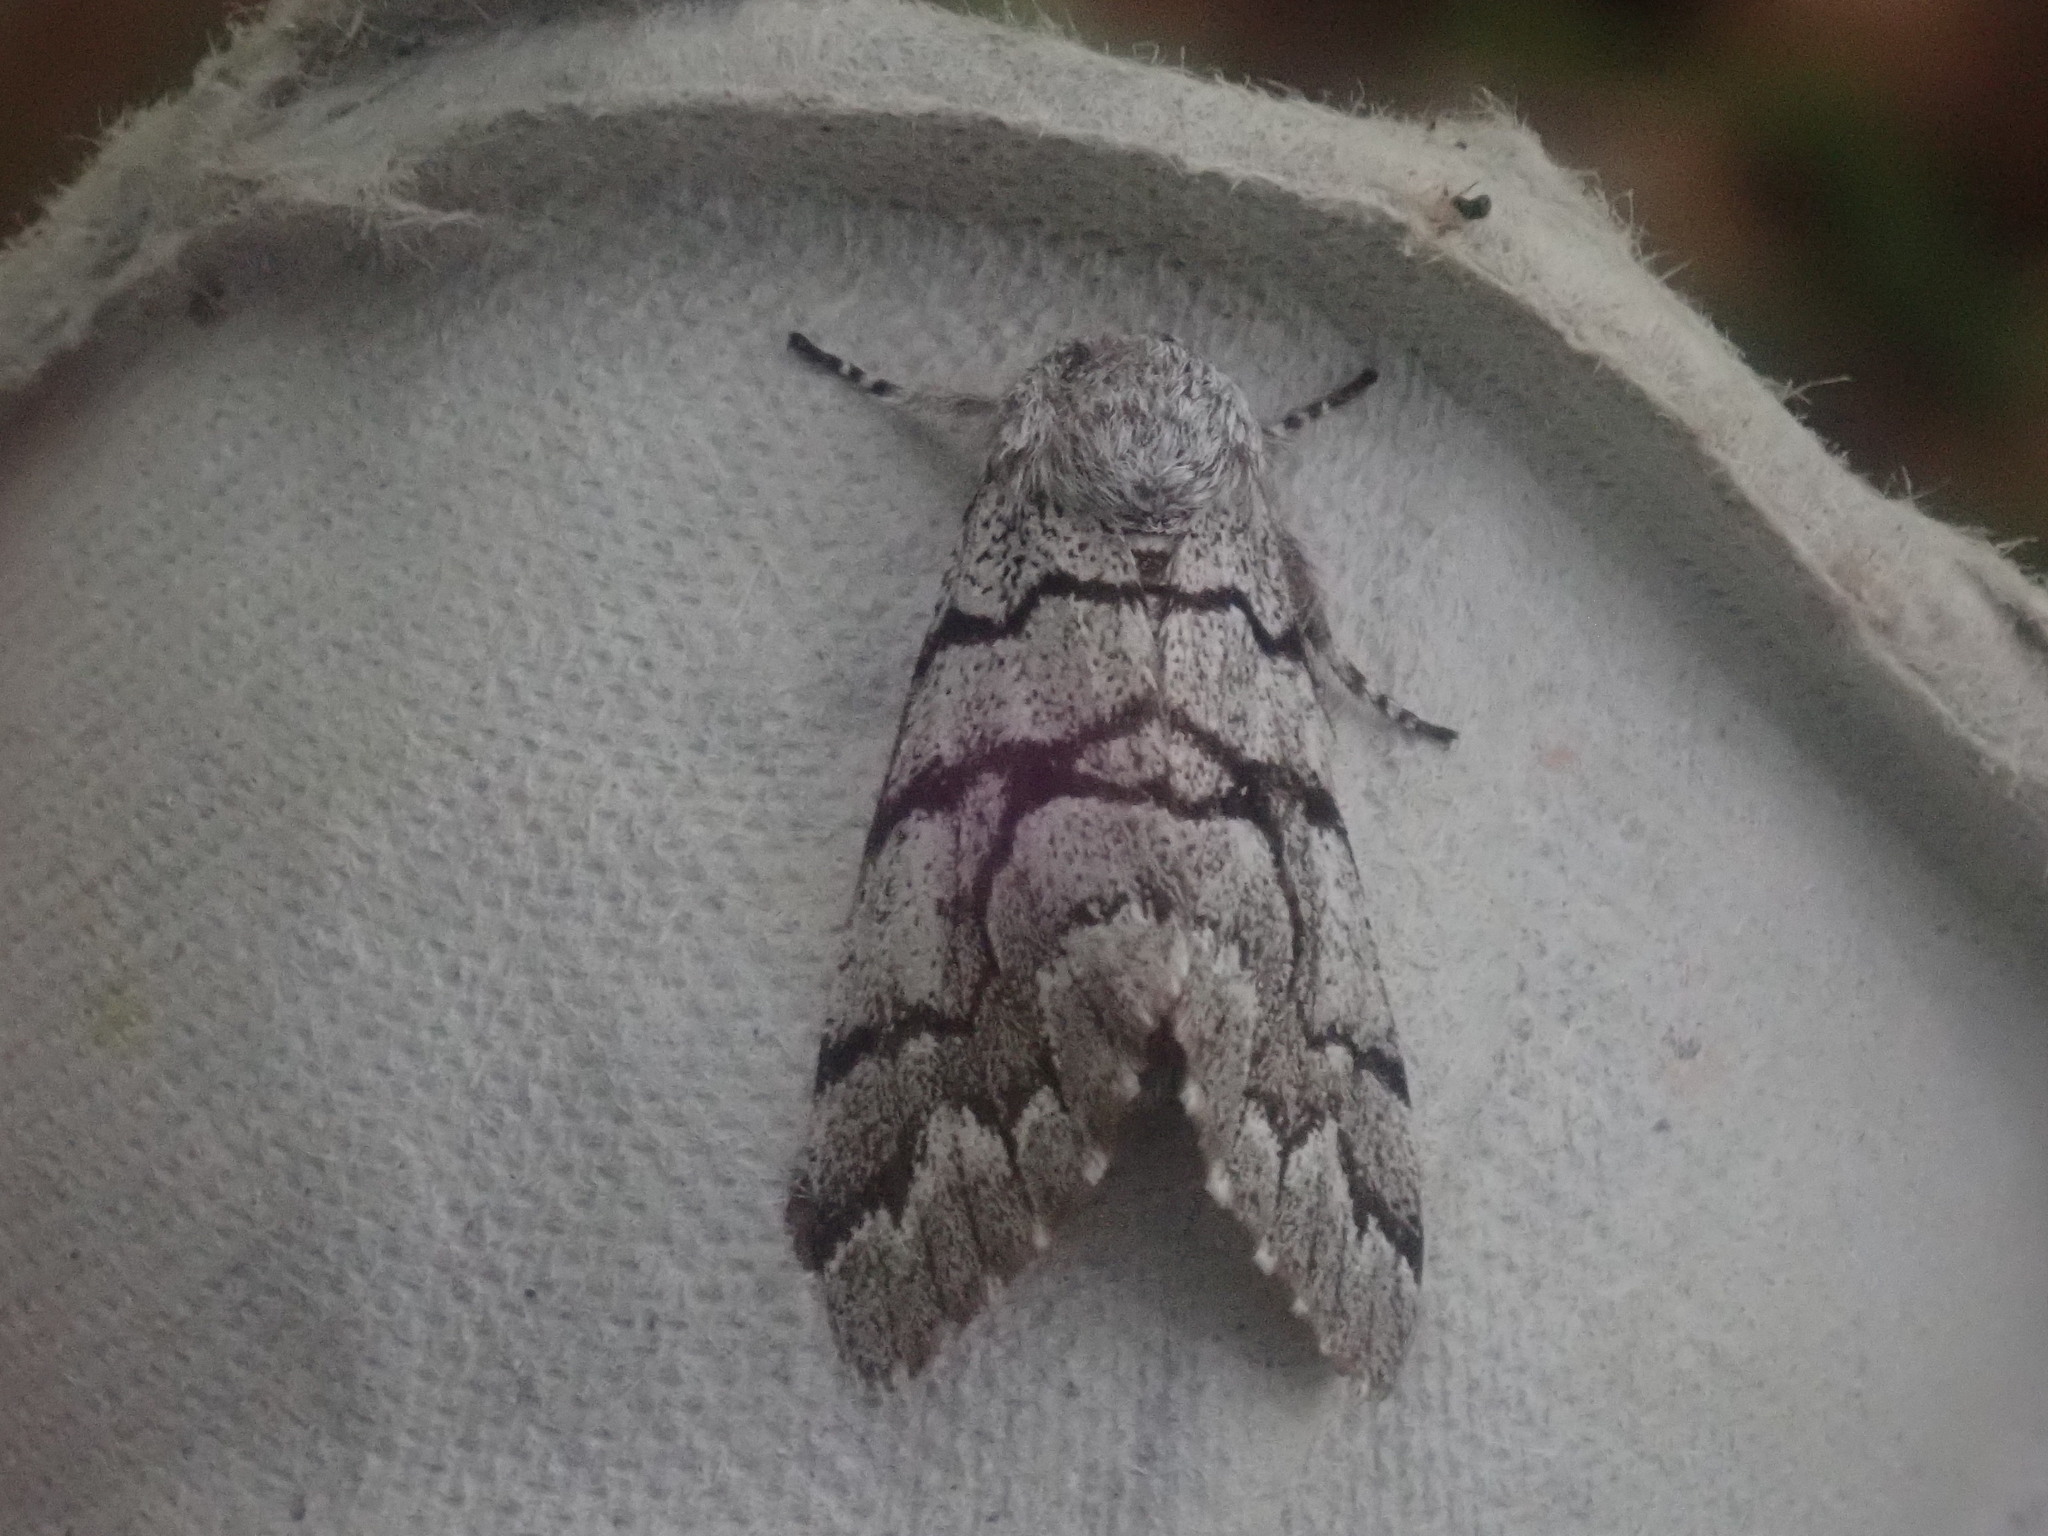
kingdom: Animalia
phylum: Arthropoda
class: Insecta
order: Lepidoptera
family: Noctuidae
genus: Panthea
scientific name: Panthea furcilla
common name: Eastern panthea moth
